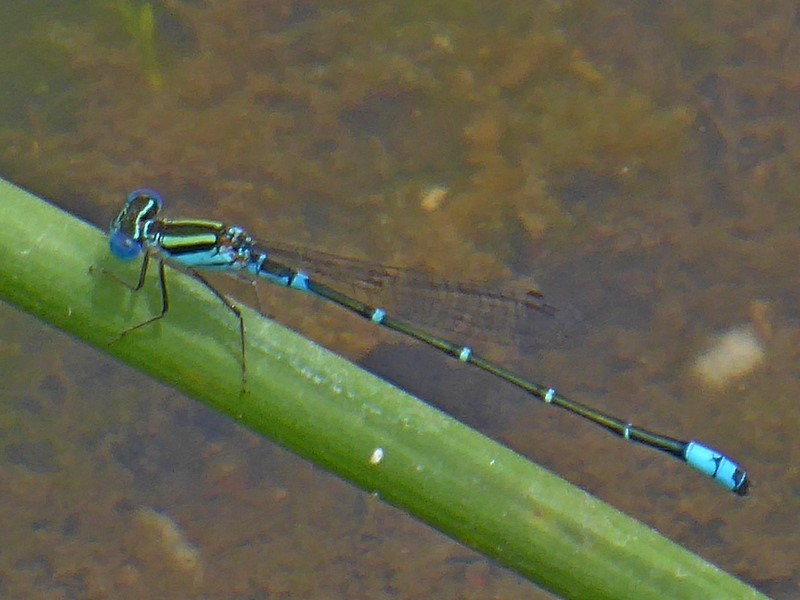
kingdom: Animalia
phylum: Arthropoda
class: Insecta
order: Odonata
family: Coenagrionidae
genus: Austroagrion
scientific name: Austroagrion watsoni
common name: Eastern billabongfly
